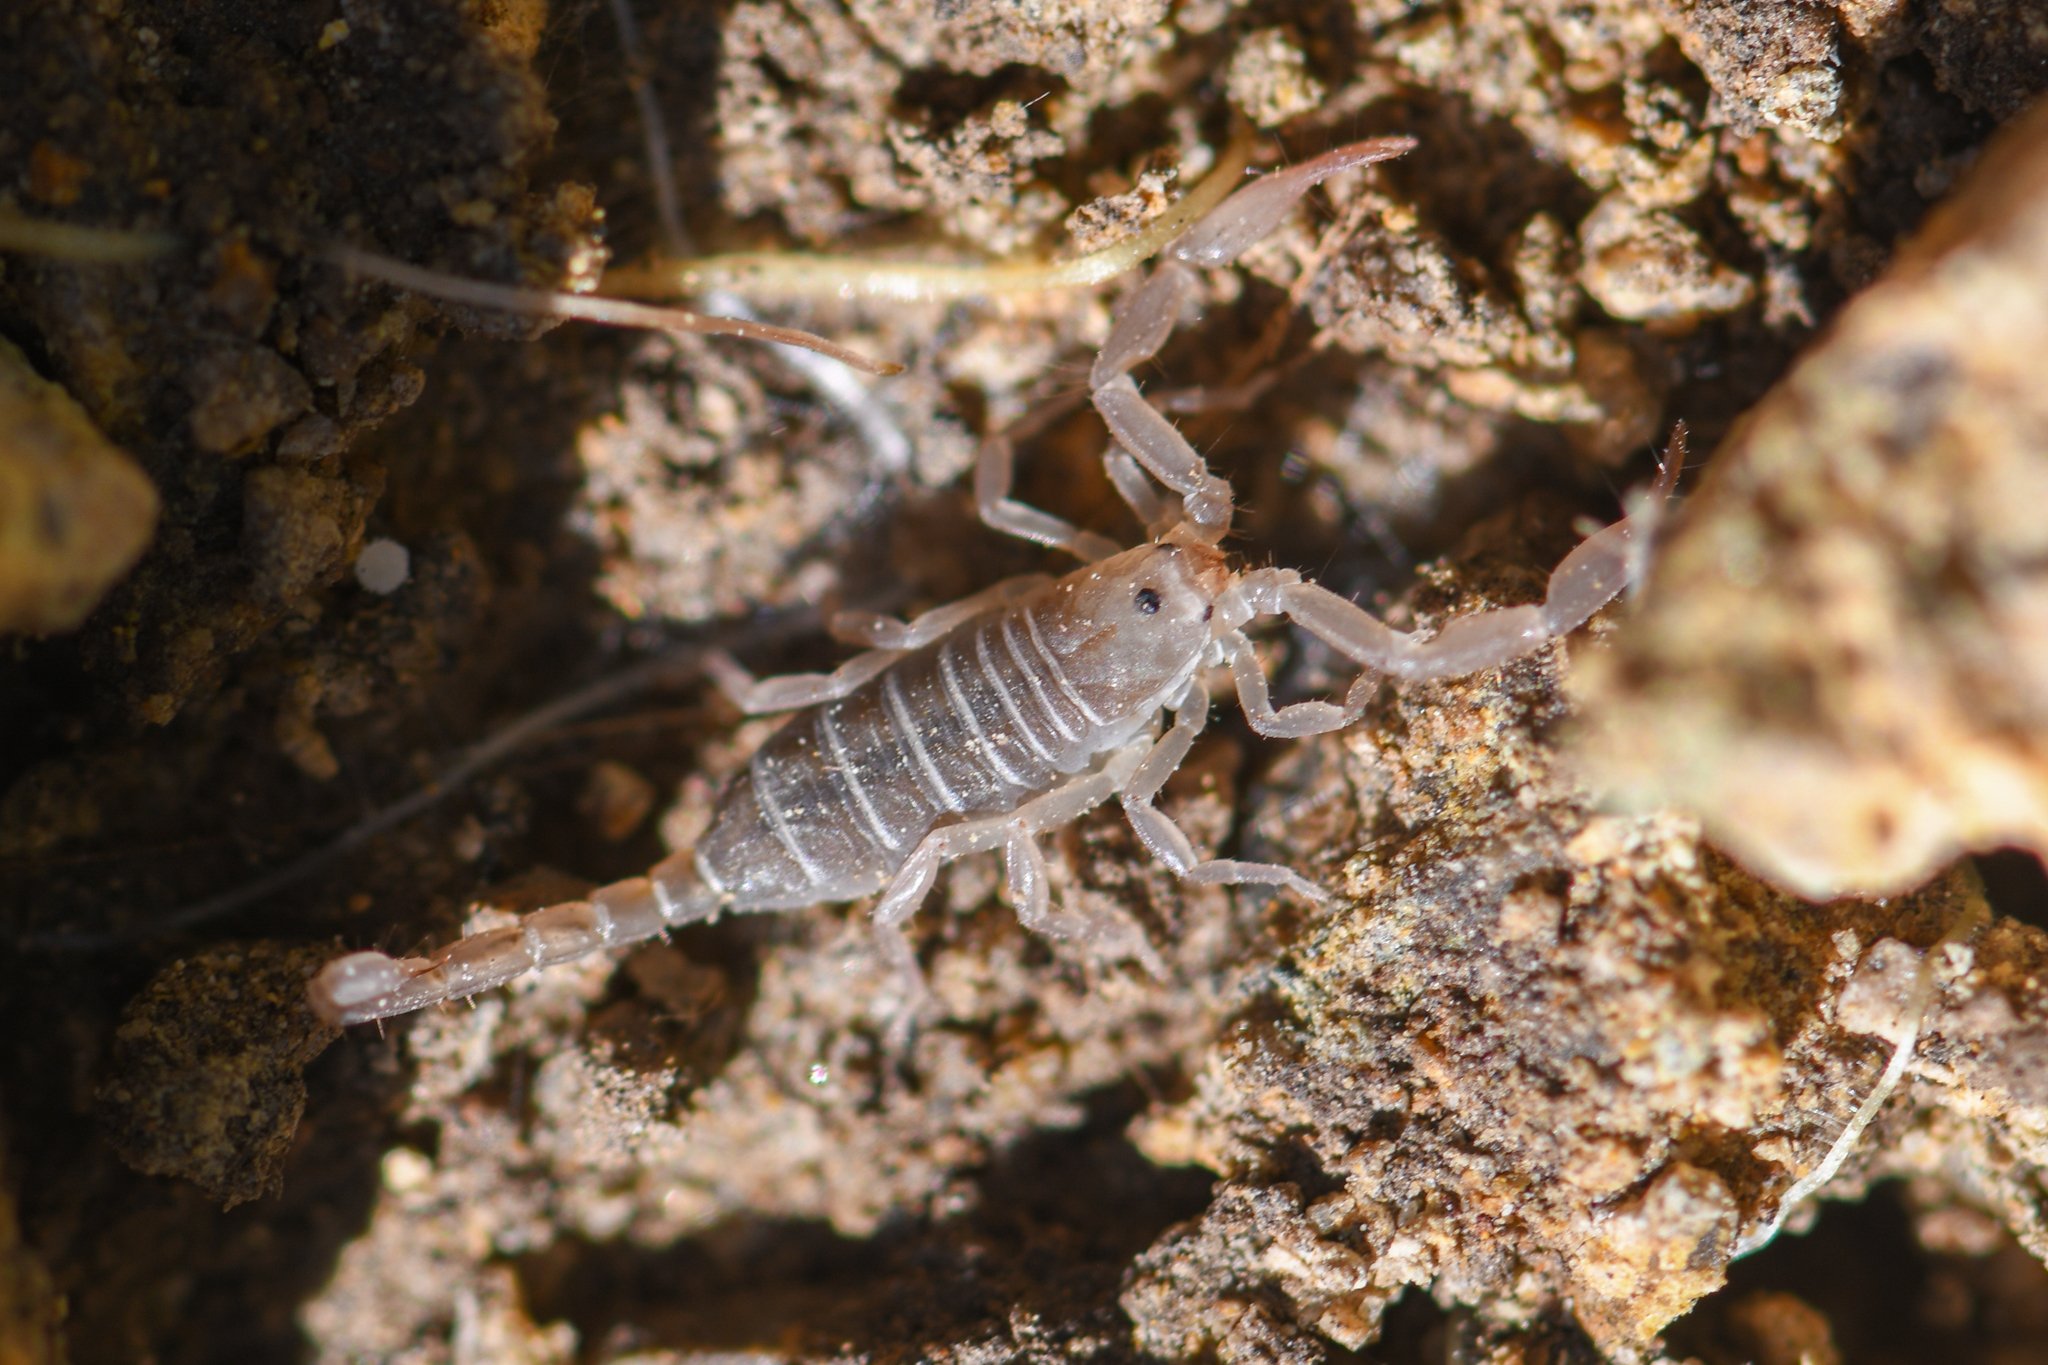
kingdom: Animalia
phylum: Arthropoda
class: Arachnida
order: Scorpiones
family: Vaejovidae
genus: Kovarikia
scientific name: Kovarikia williamsi
